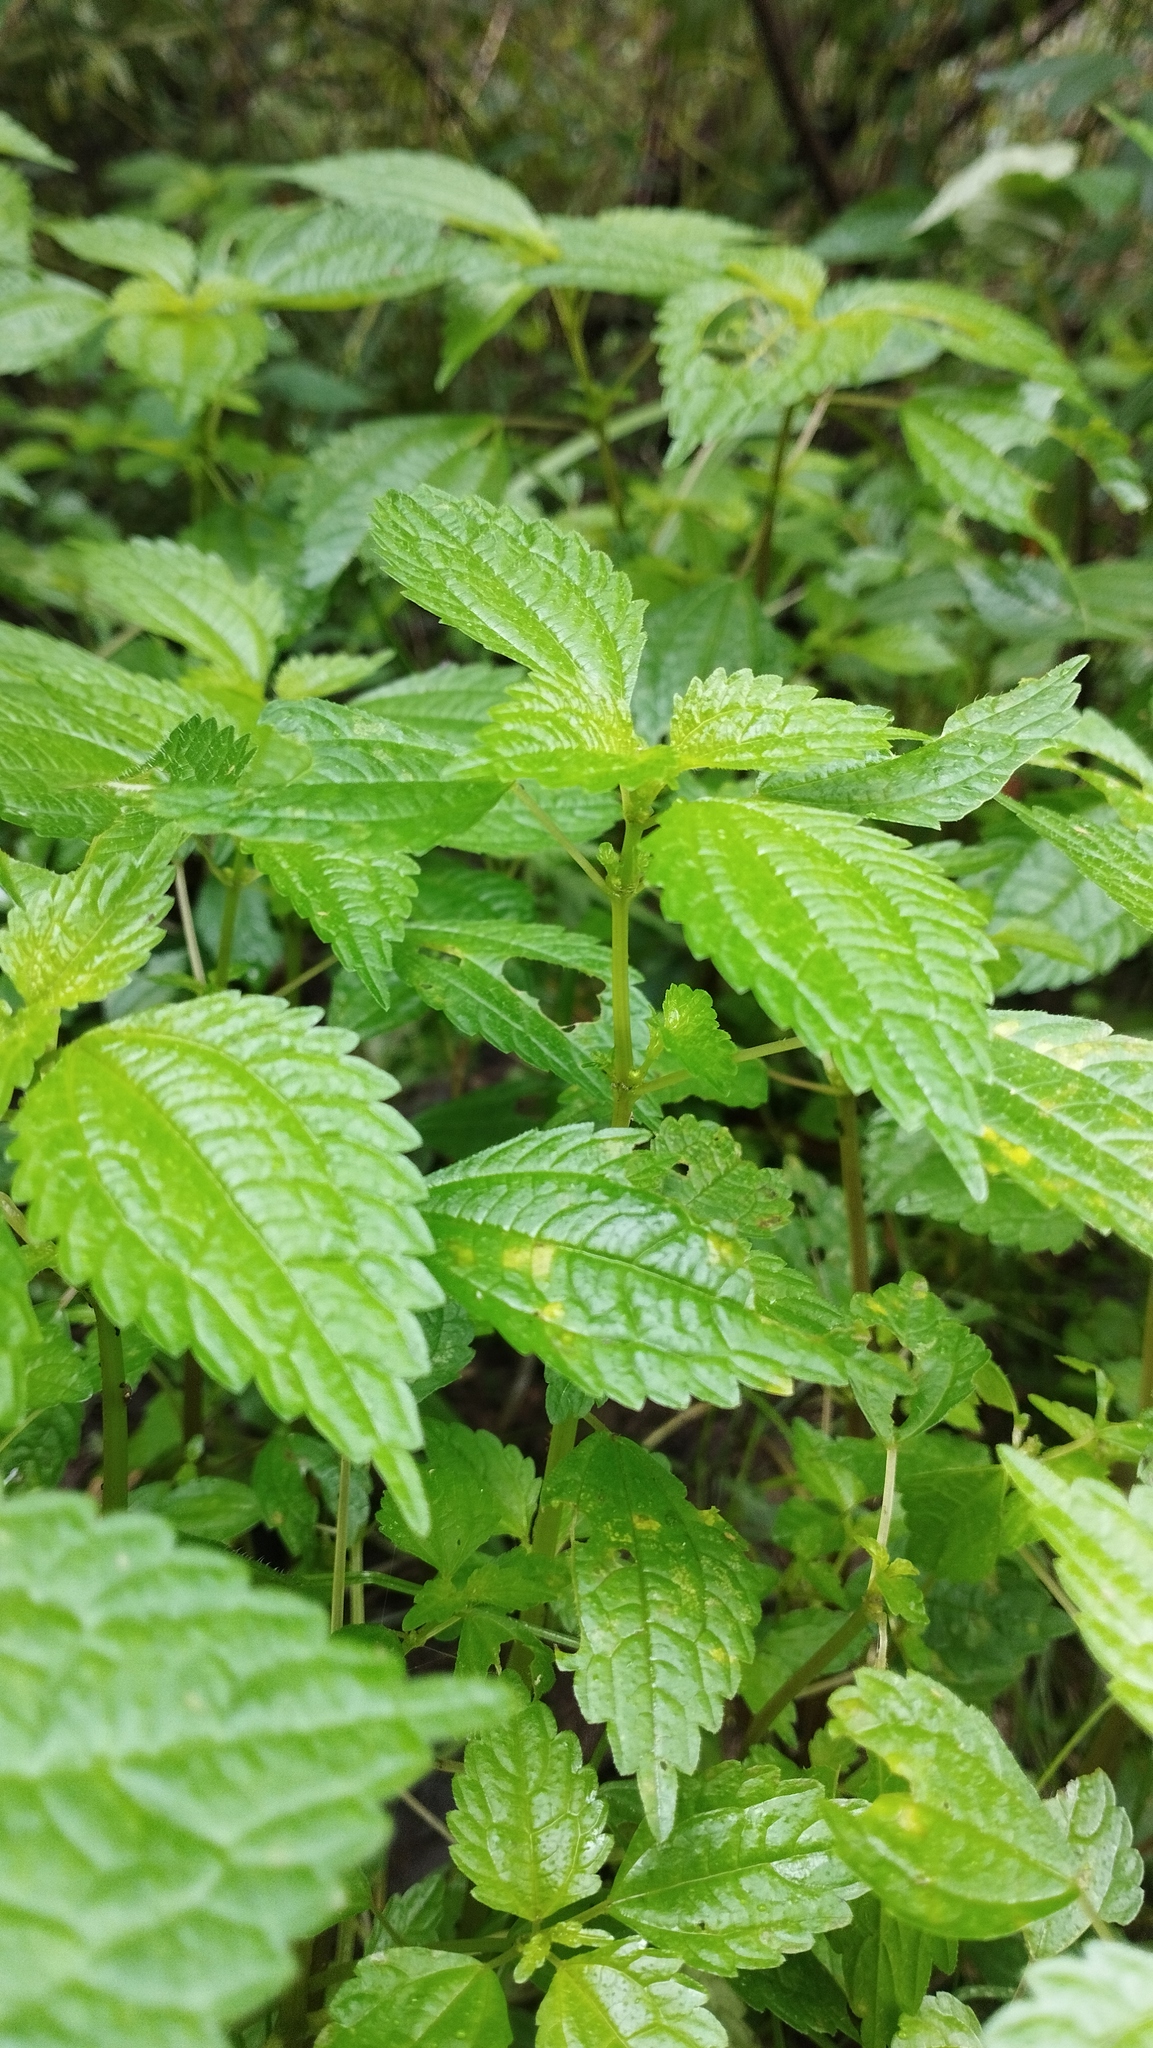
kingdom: Plantae
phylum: Tracheophyta
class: Magnoliopsida
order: Rosales
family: Urticaceae
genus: Pilea
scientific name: Pilea pumila
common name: Clearweed
